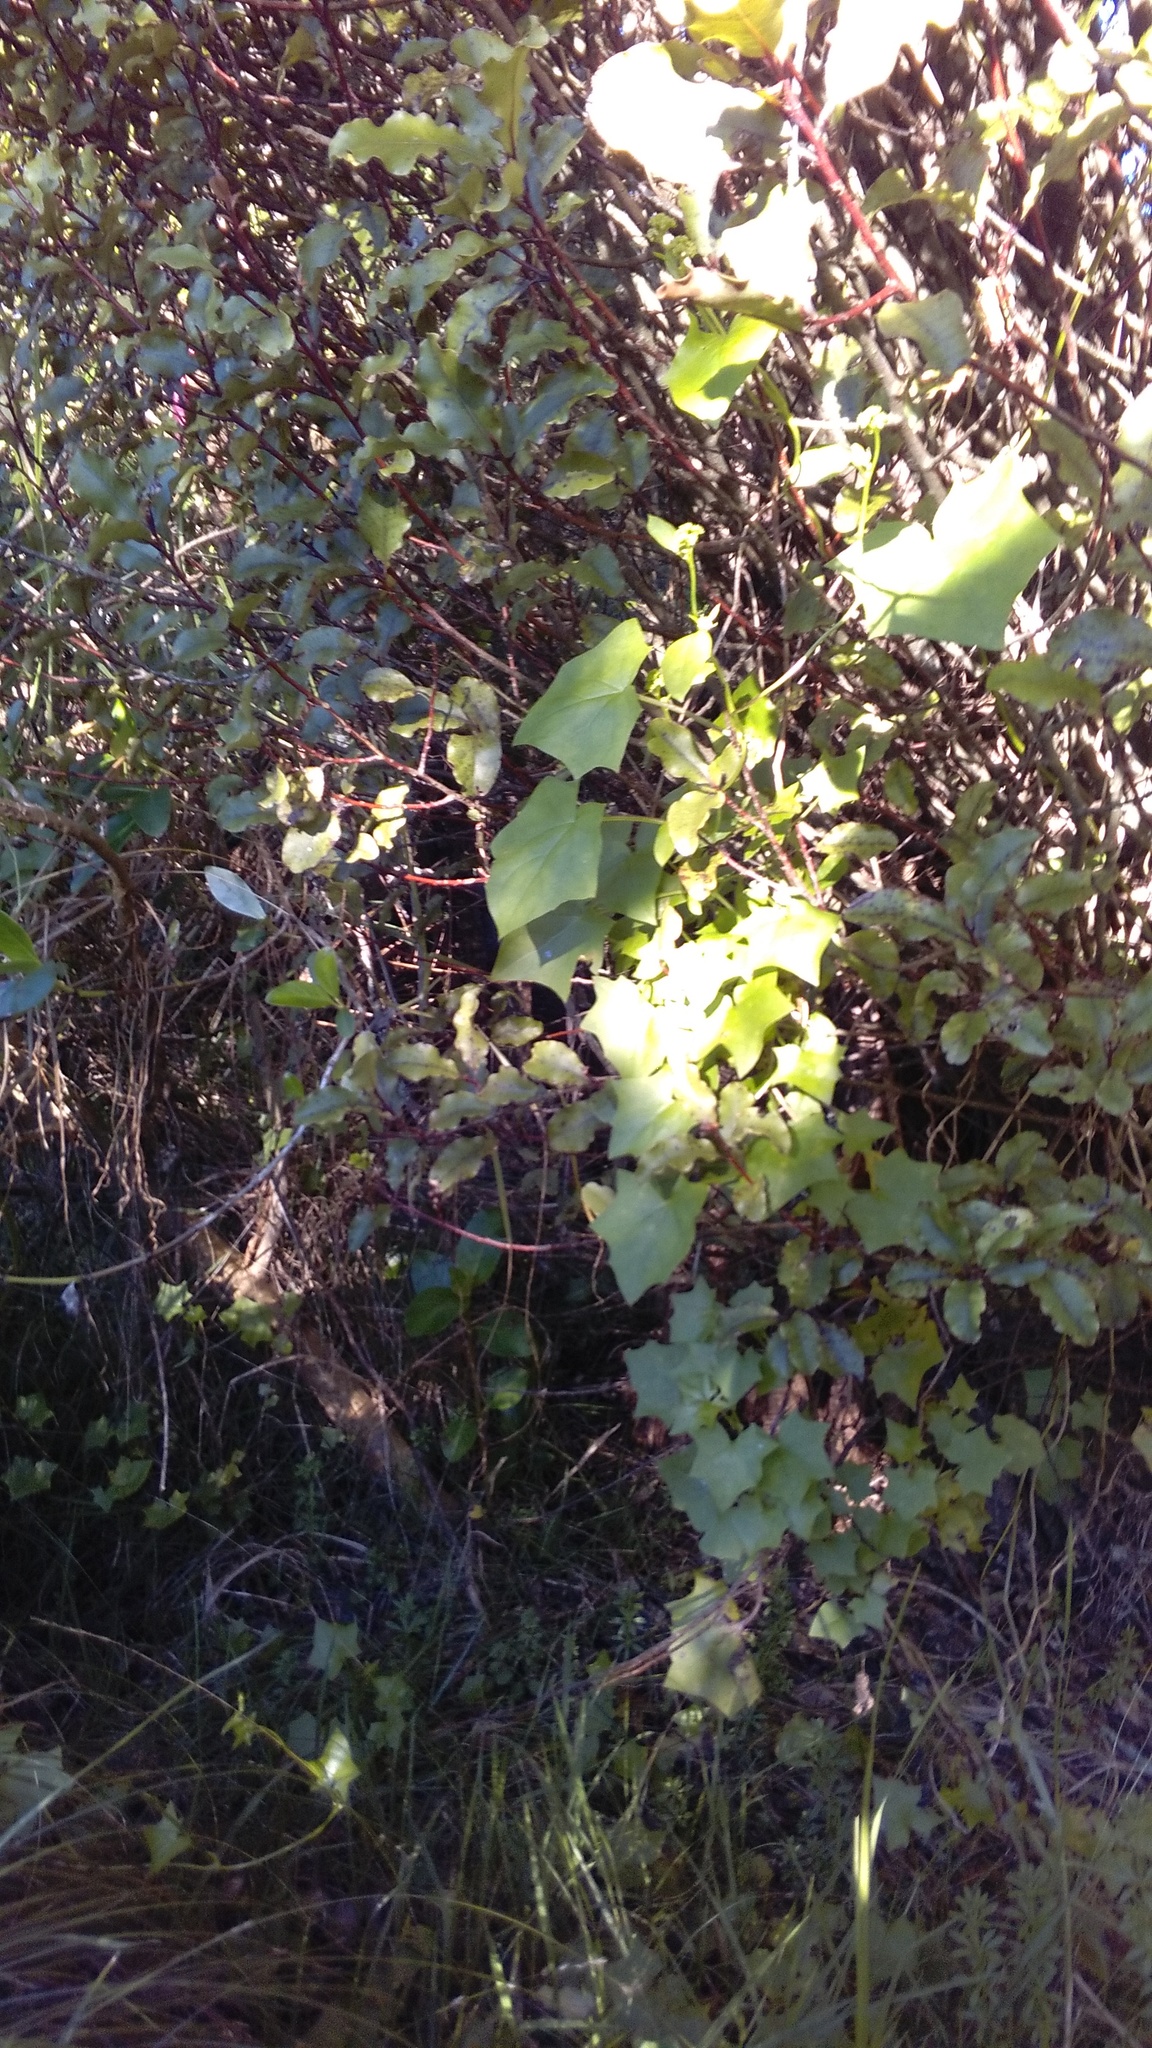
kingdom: Plantae
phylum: Tracheophyta
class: Magnoliopsida
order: Asterales
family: Asteraceae
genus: Delairea
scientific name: Delairea odorata
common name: Cape-ivy
